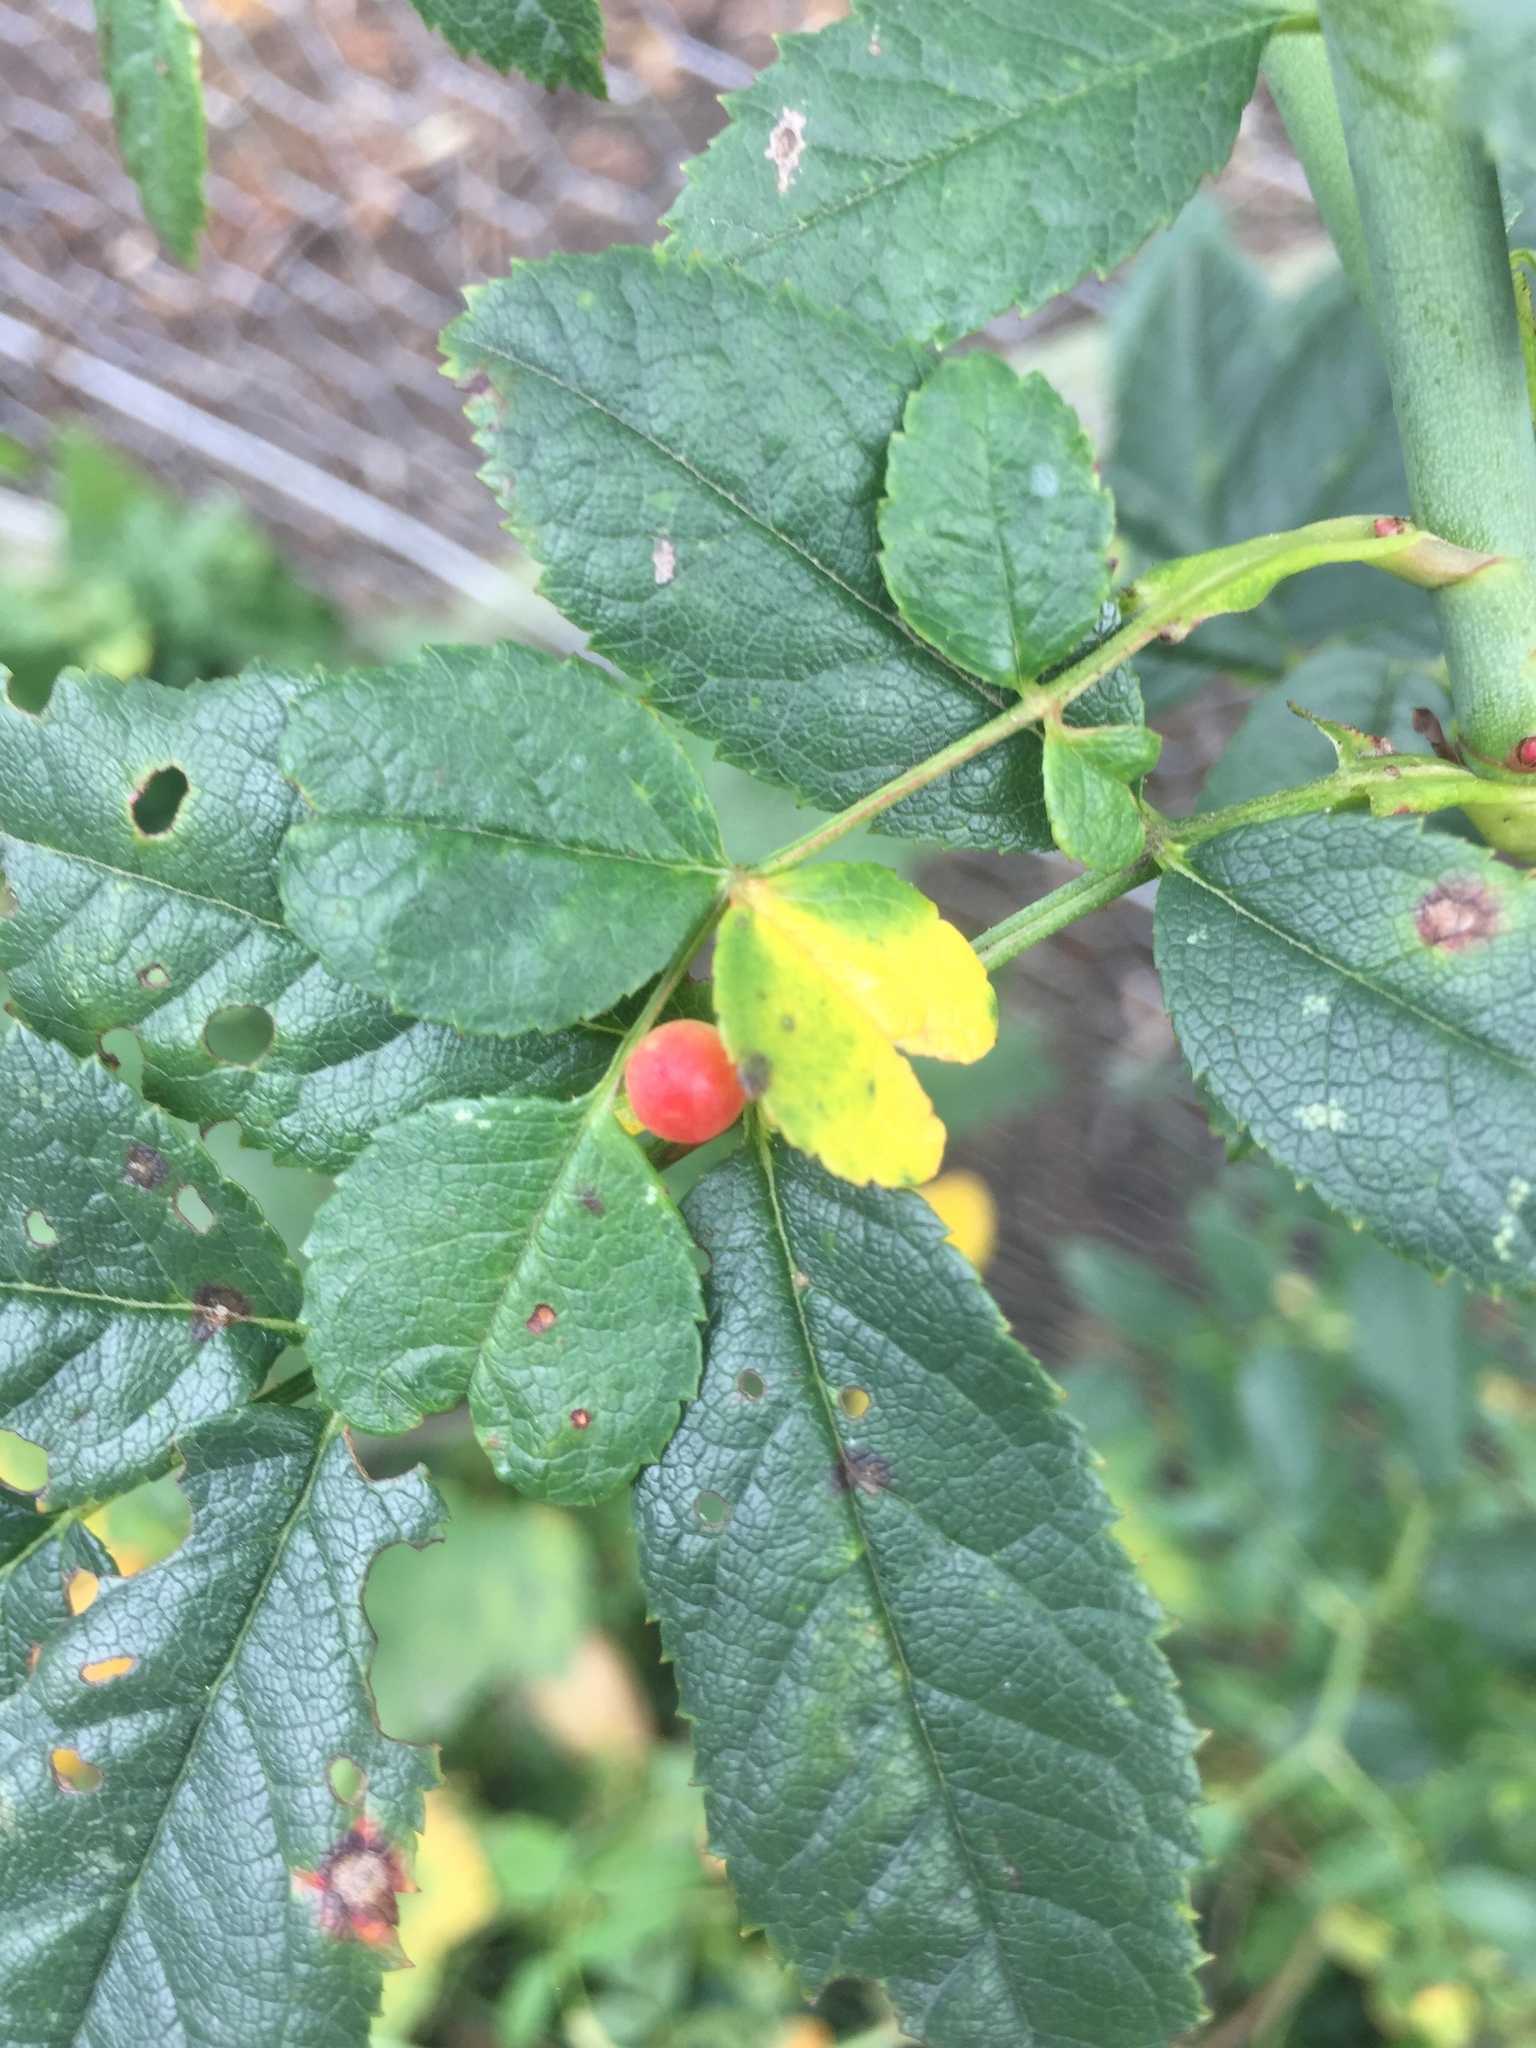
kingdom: Animalia
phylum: Arthropoda
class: Insecta
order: Hymenoptera
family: Cynipidae
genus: Diplolepis
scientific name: Diplolepis
